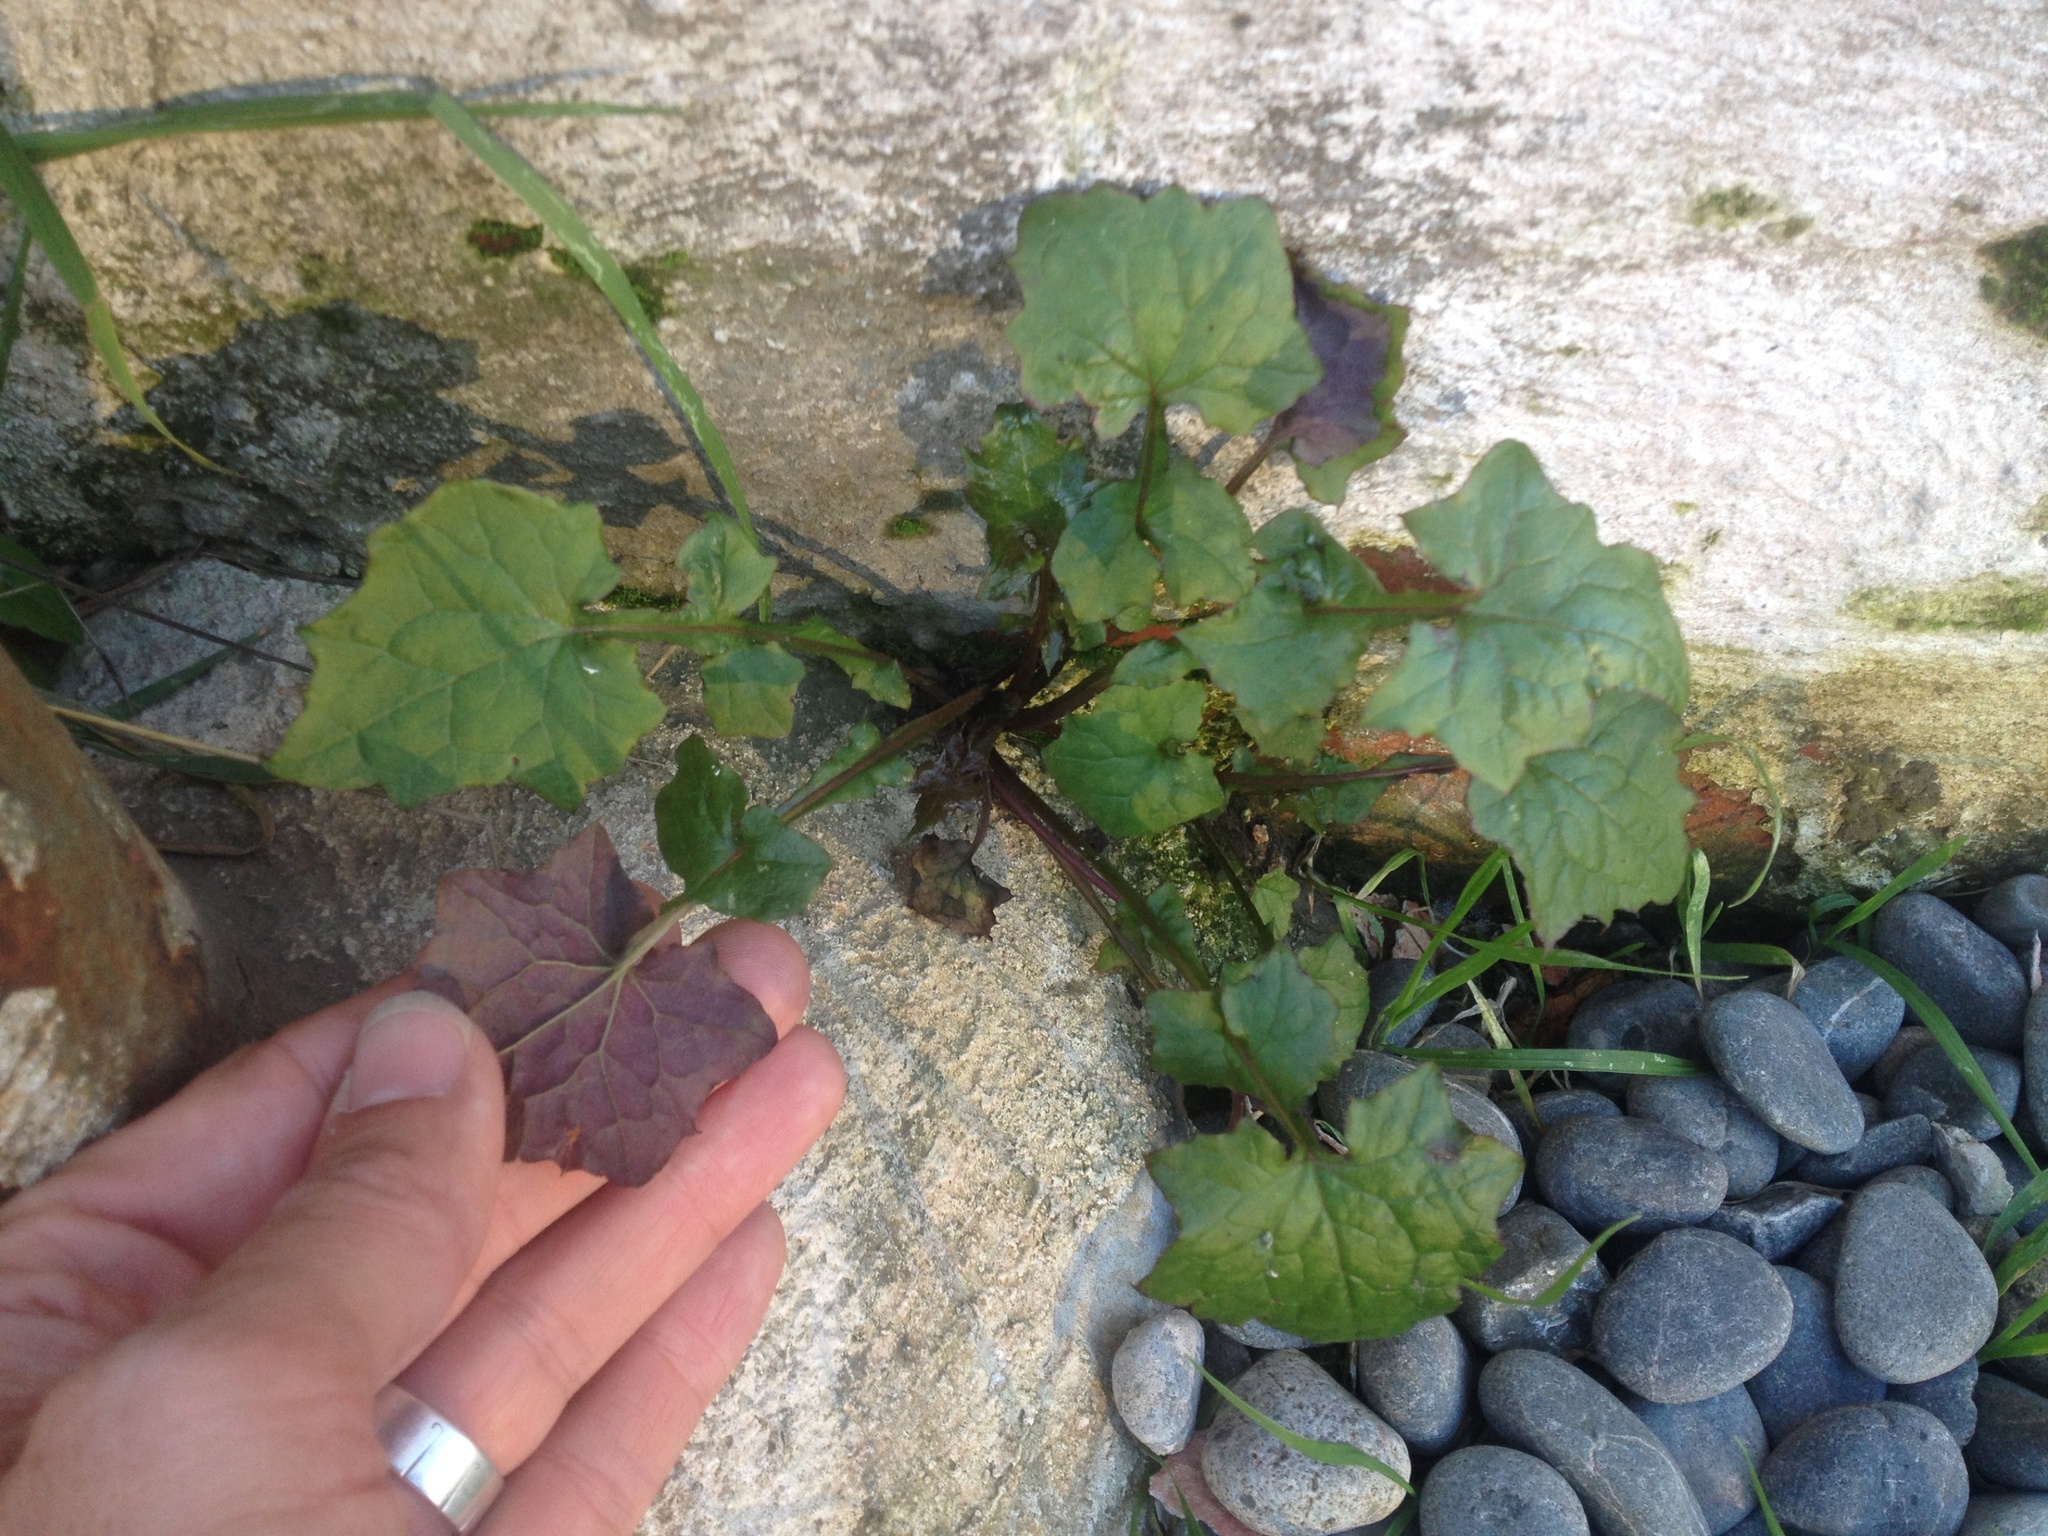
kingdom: Plantae
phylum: Tracheophyta
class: Magnoliopsida
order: Asterales
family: Asteraceae
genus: Mycelis
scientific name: Mycelis muralis
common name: Wall lettuce
